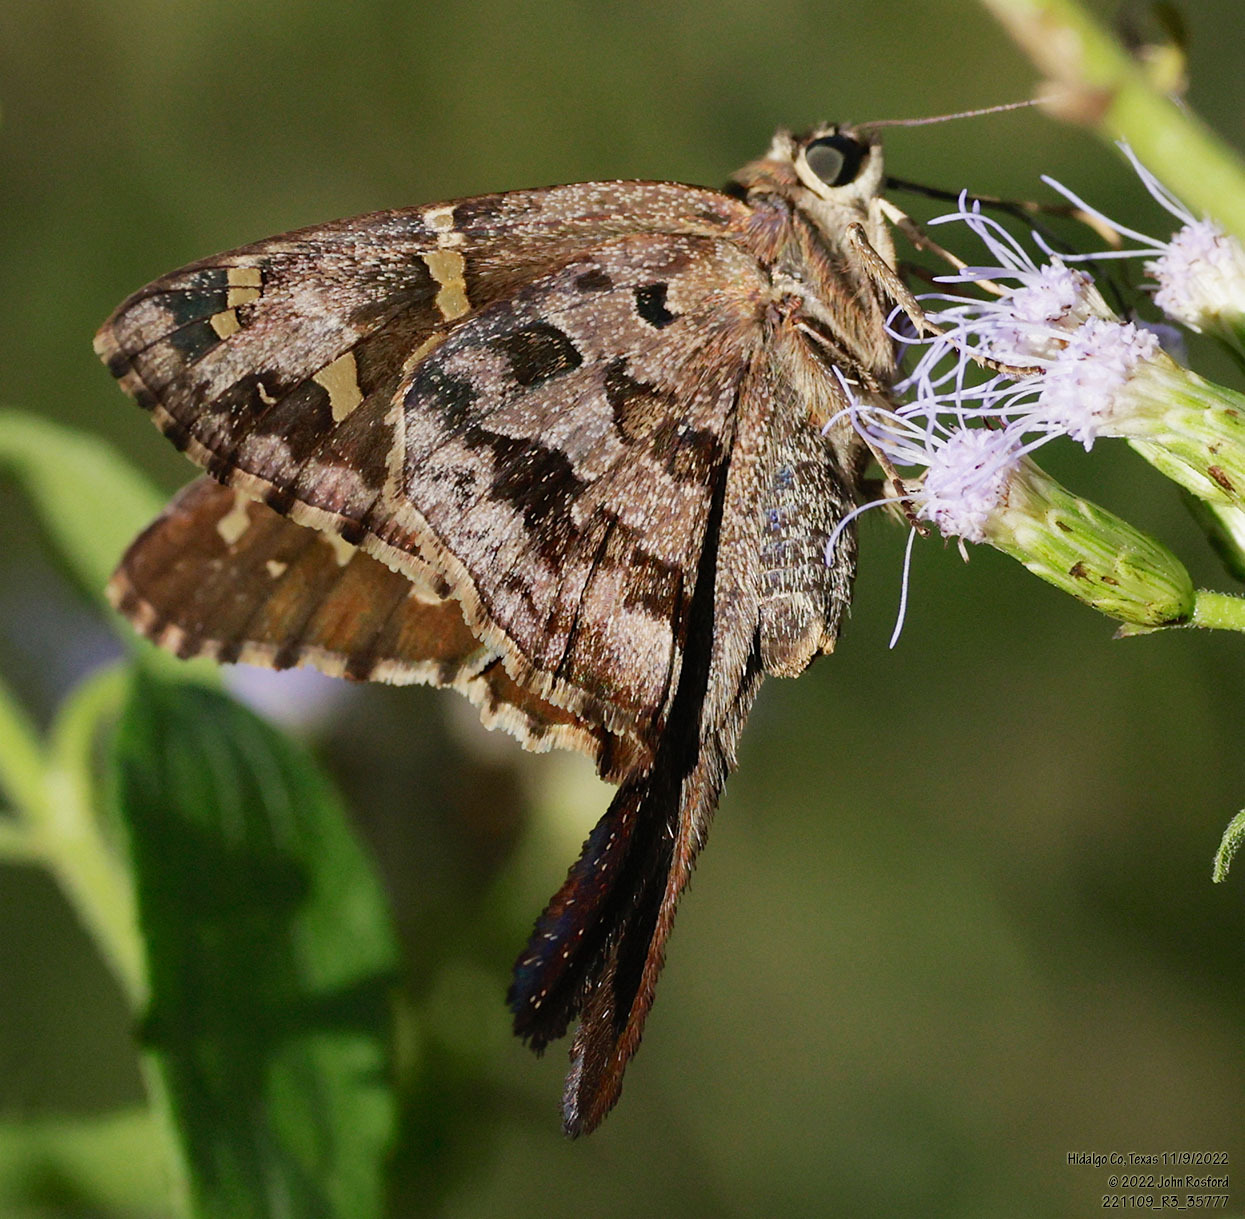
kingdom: Animalia
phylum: Arthropoda
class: Insecta
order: Lepidoptera
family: Hesperiidae
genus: Thorybes
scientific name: Thorybes
